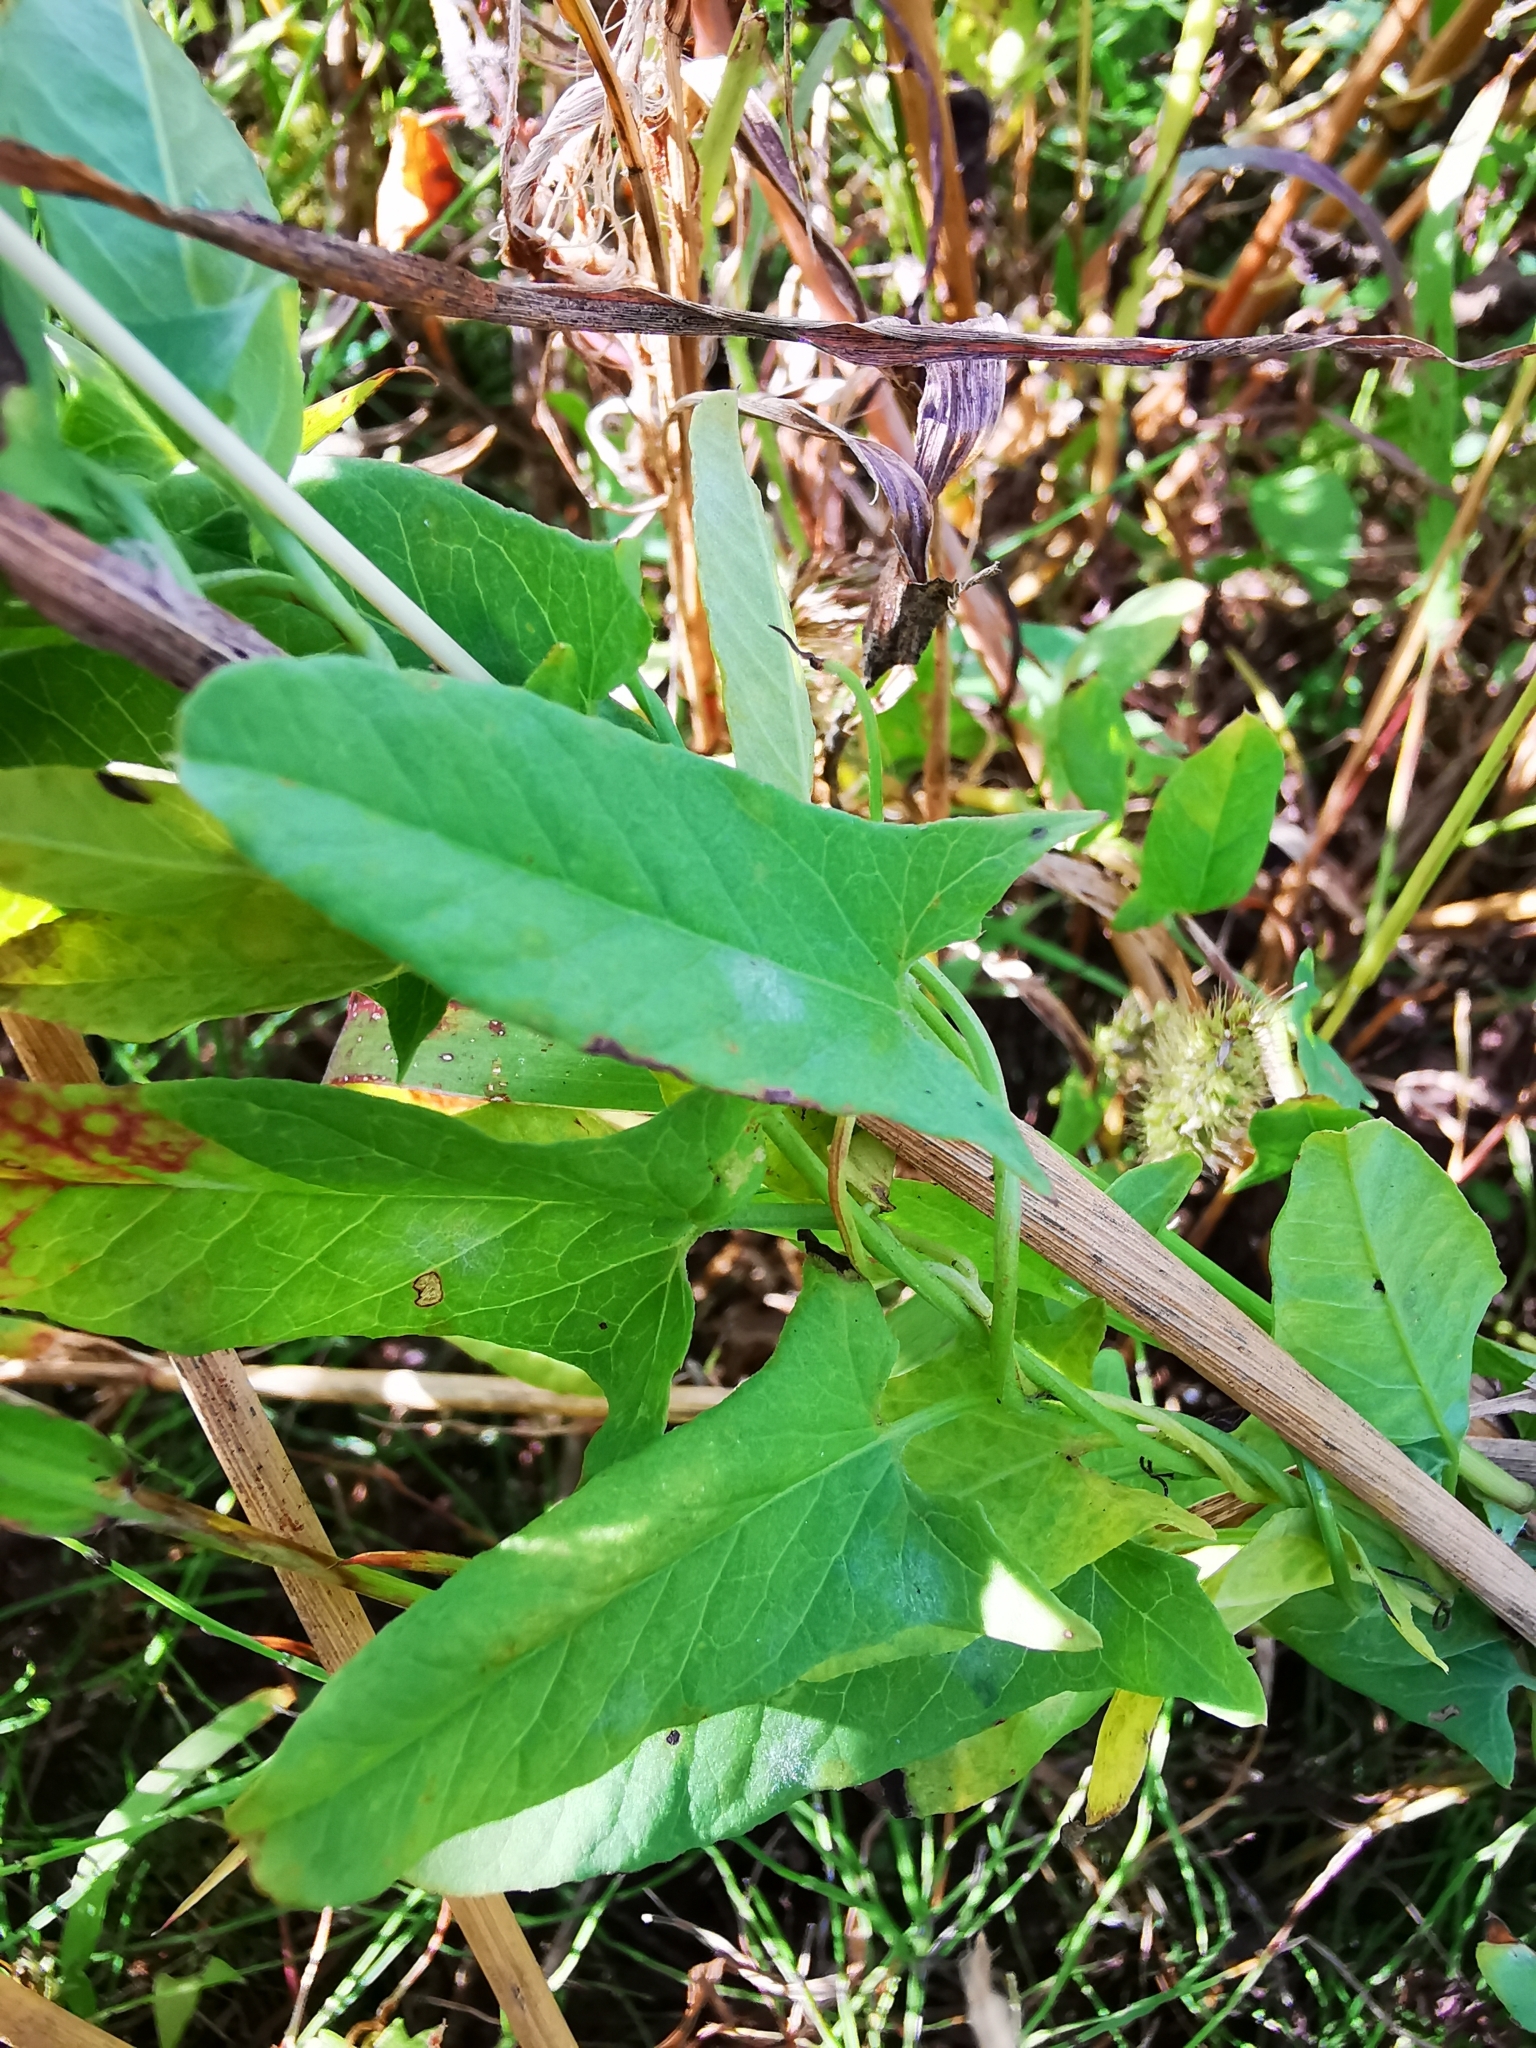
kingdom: Plantae
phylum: Tracheophyta
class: Magnoliopsida
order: Solanales
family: Convolvulaceae
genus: Convolvulus
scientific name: Convolvulus arvensis
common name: Field bindweed
